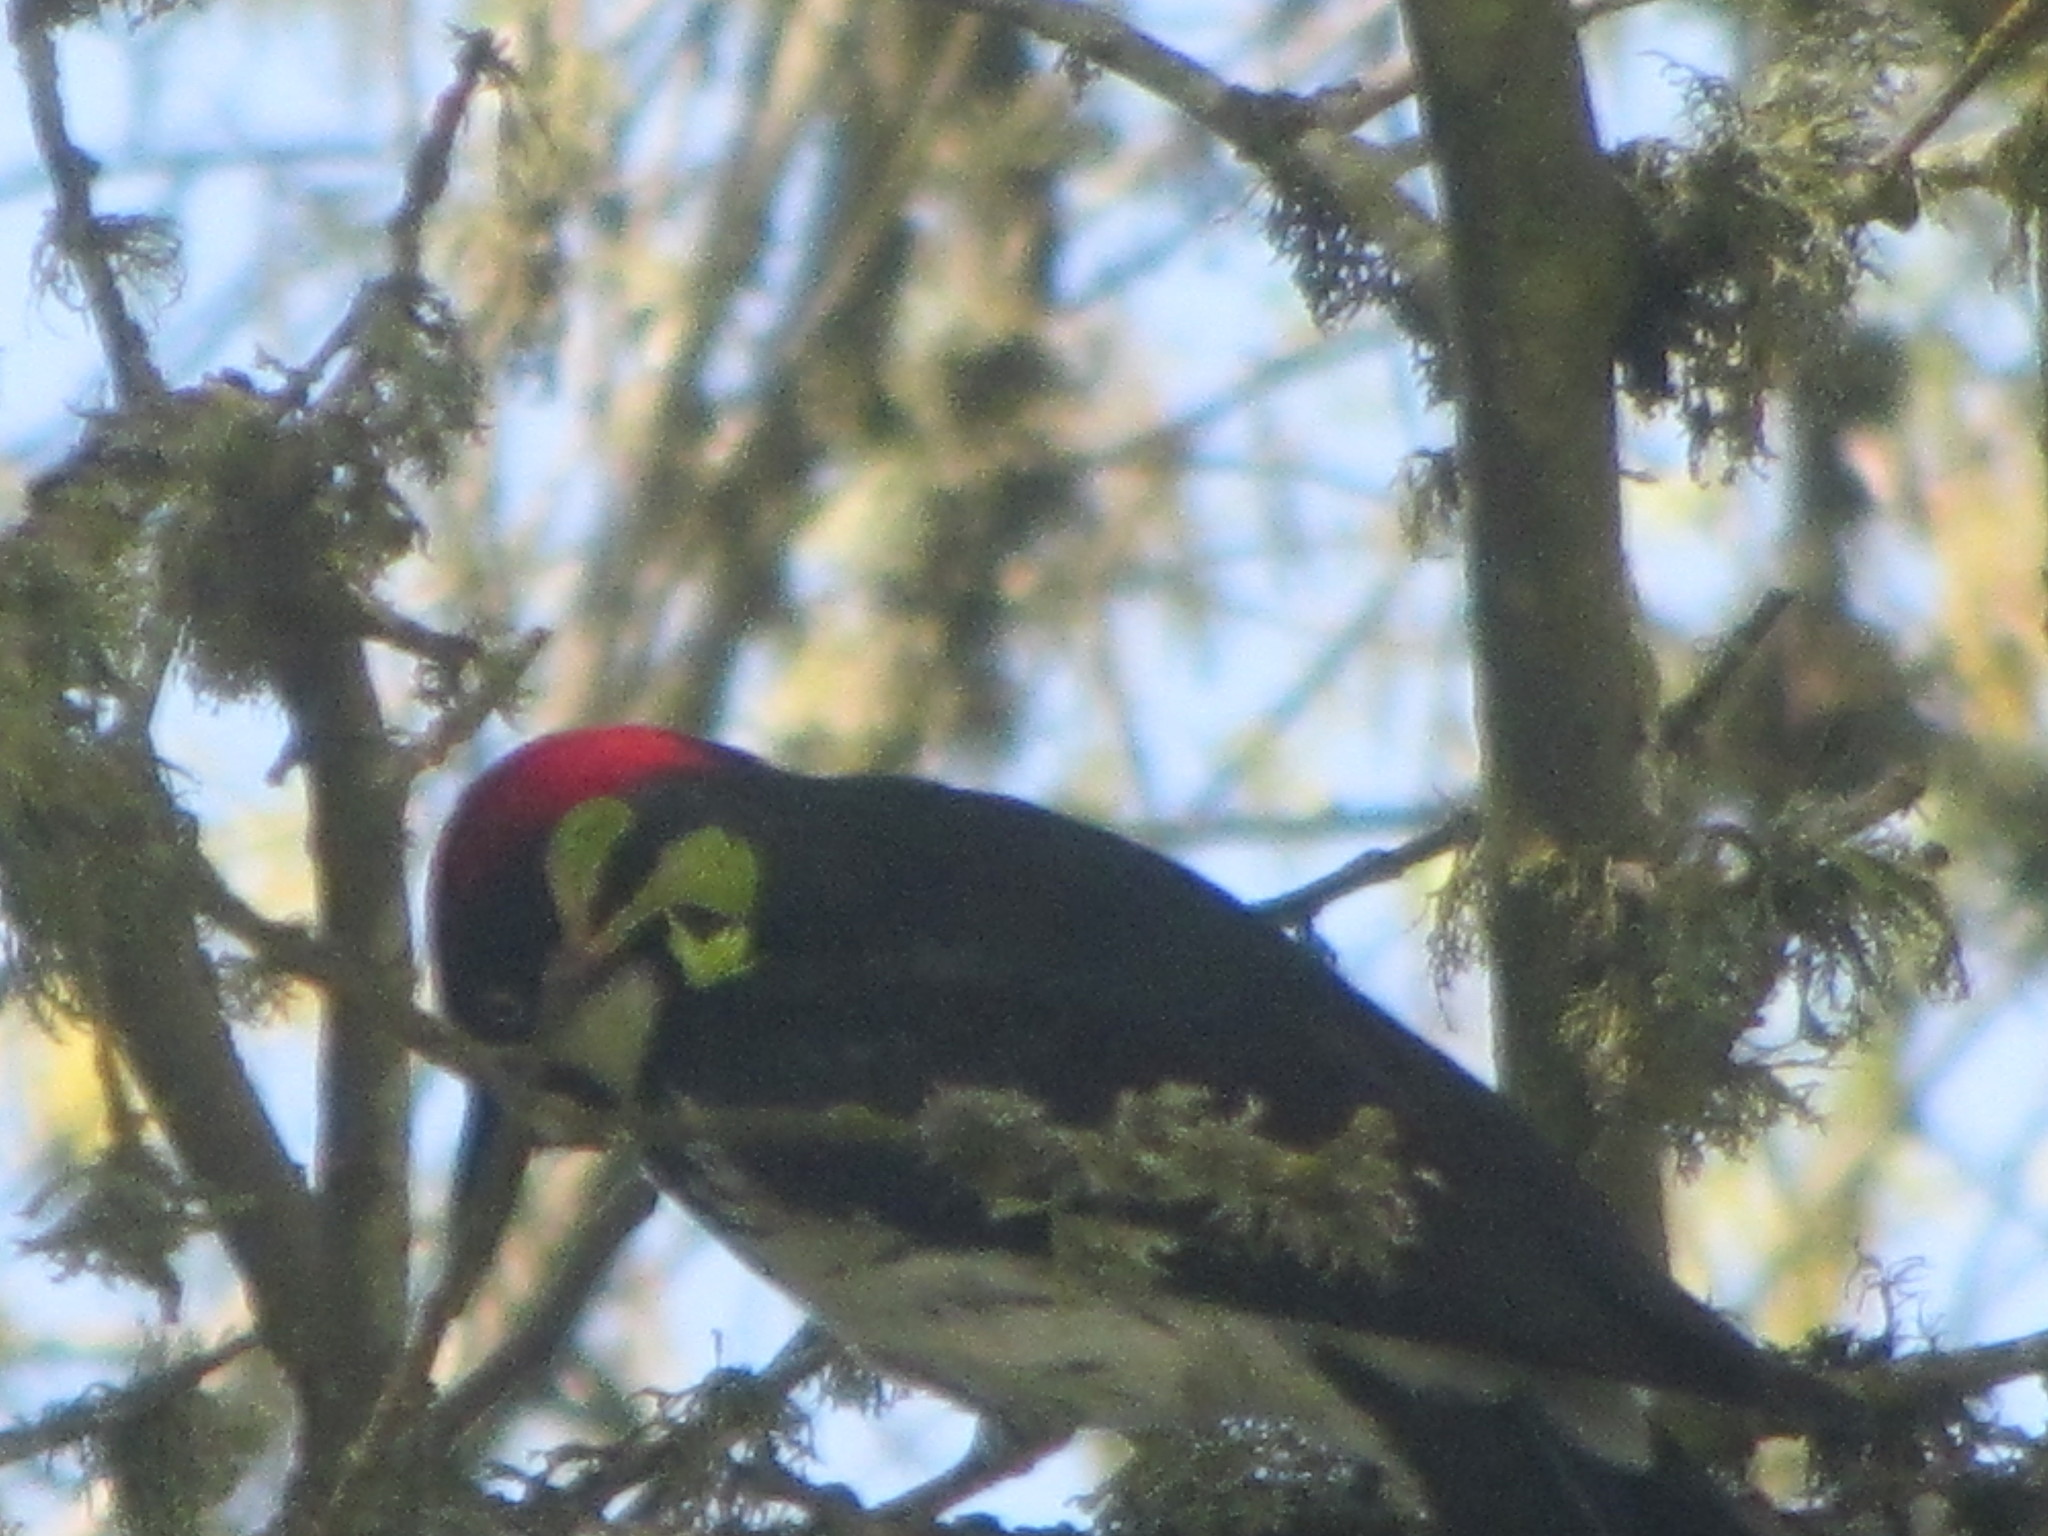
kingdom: Animalia
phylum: Chordata
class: Aves
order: Piciformes
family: Picidae
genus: Melanerpes
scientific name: Melanerpes formicivorus
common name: Acorn woodpecker
